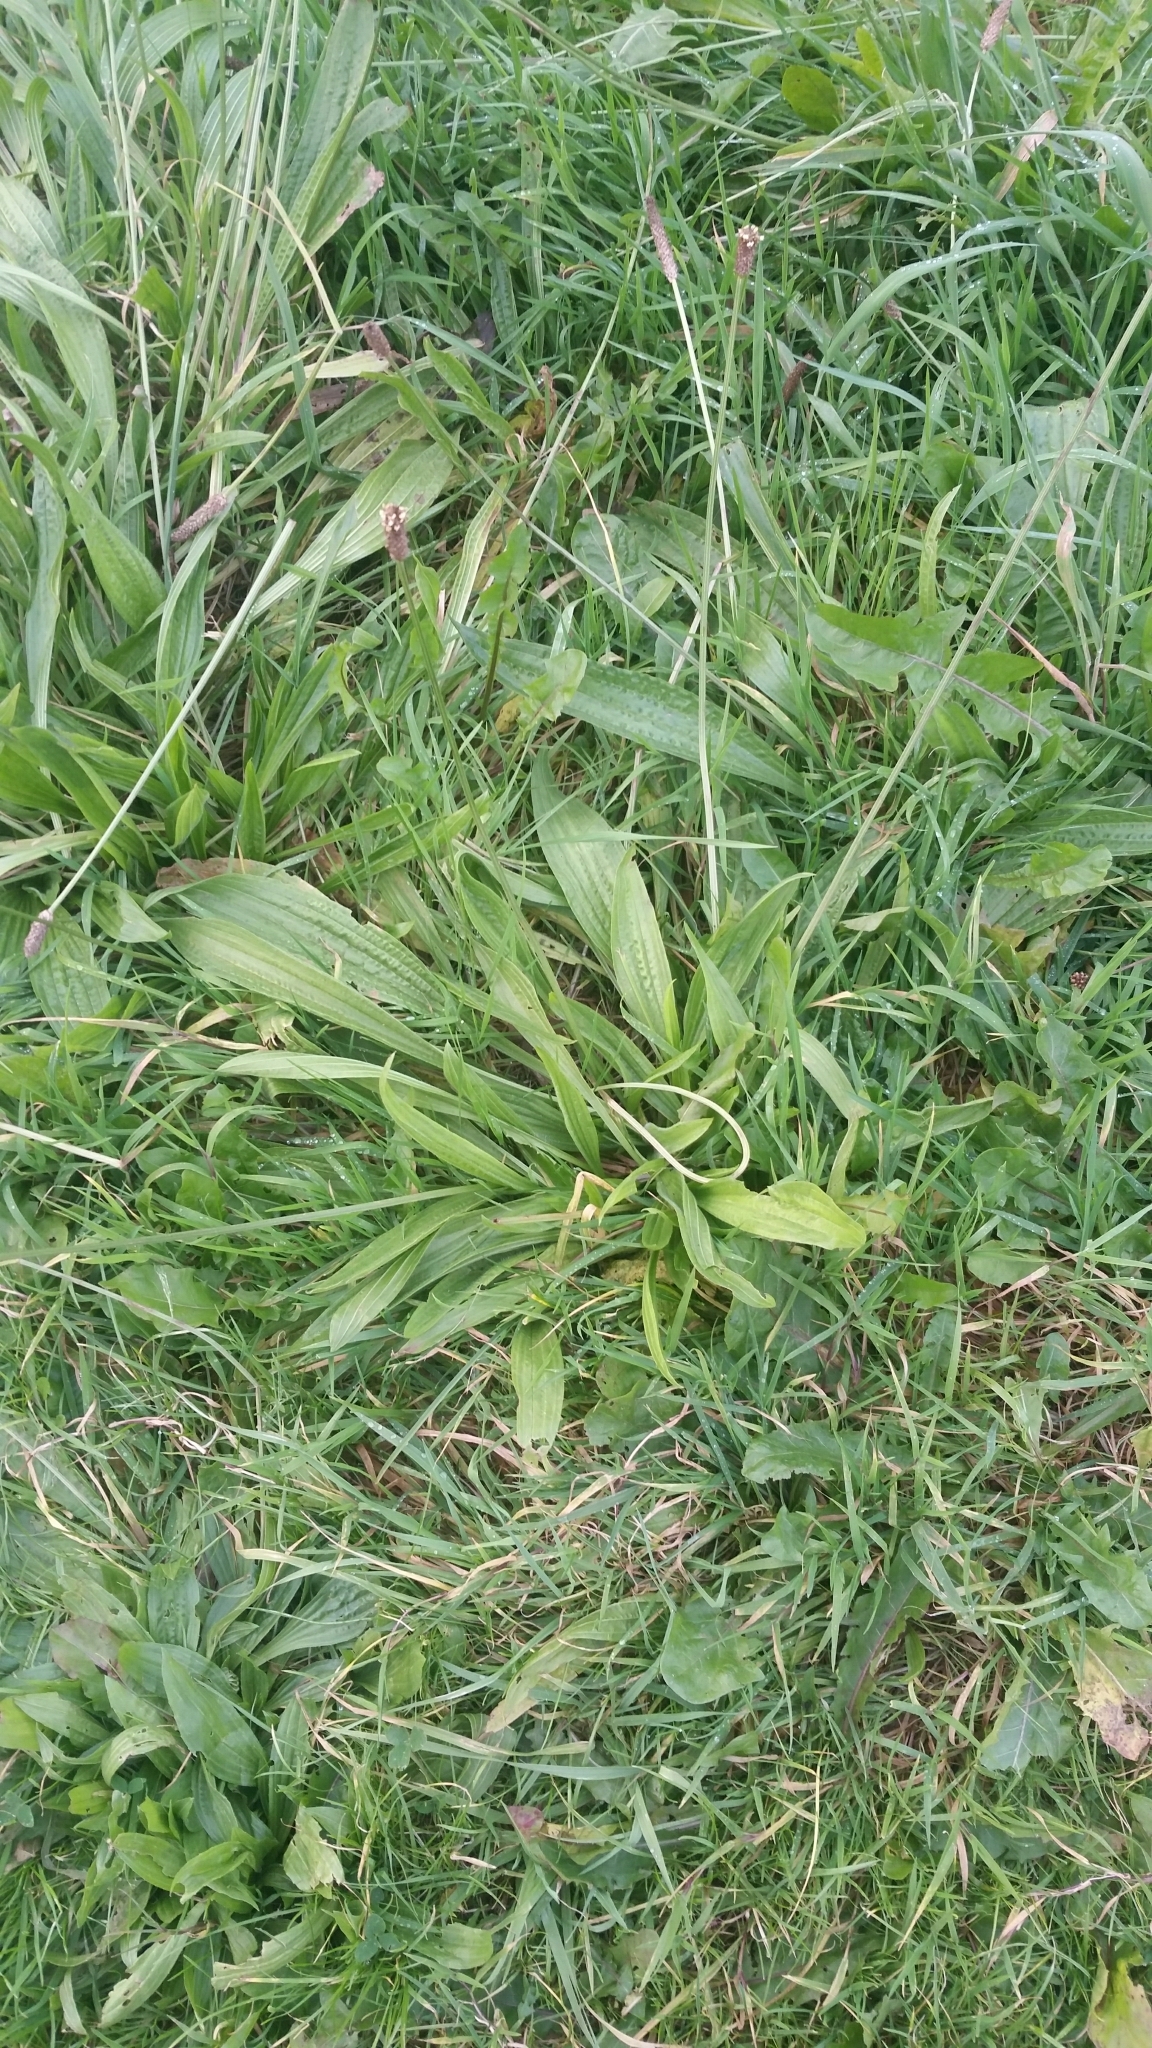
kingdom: Plantae
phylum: Tracheophyta
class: Magnoliopsida
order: Lamiales
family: Plantaginaceae
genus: Plantago
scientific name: Plantago lanceolata
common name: Ribwort plantain
